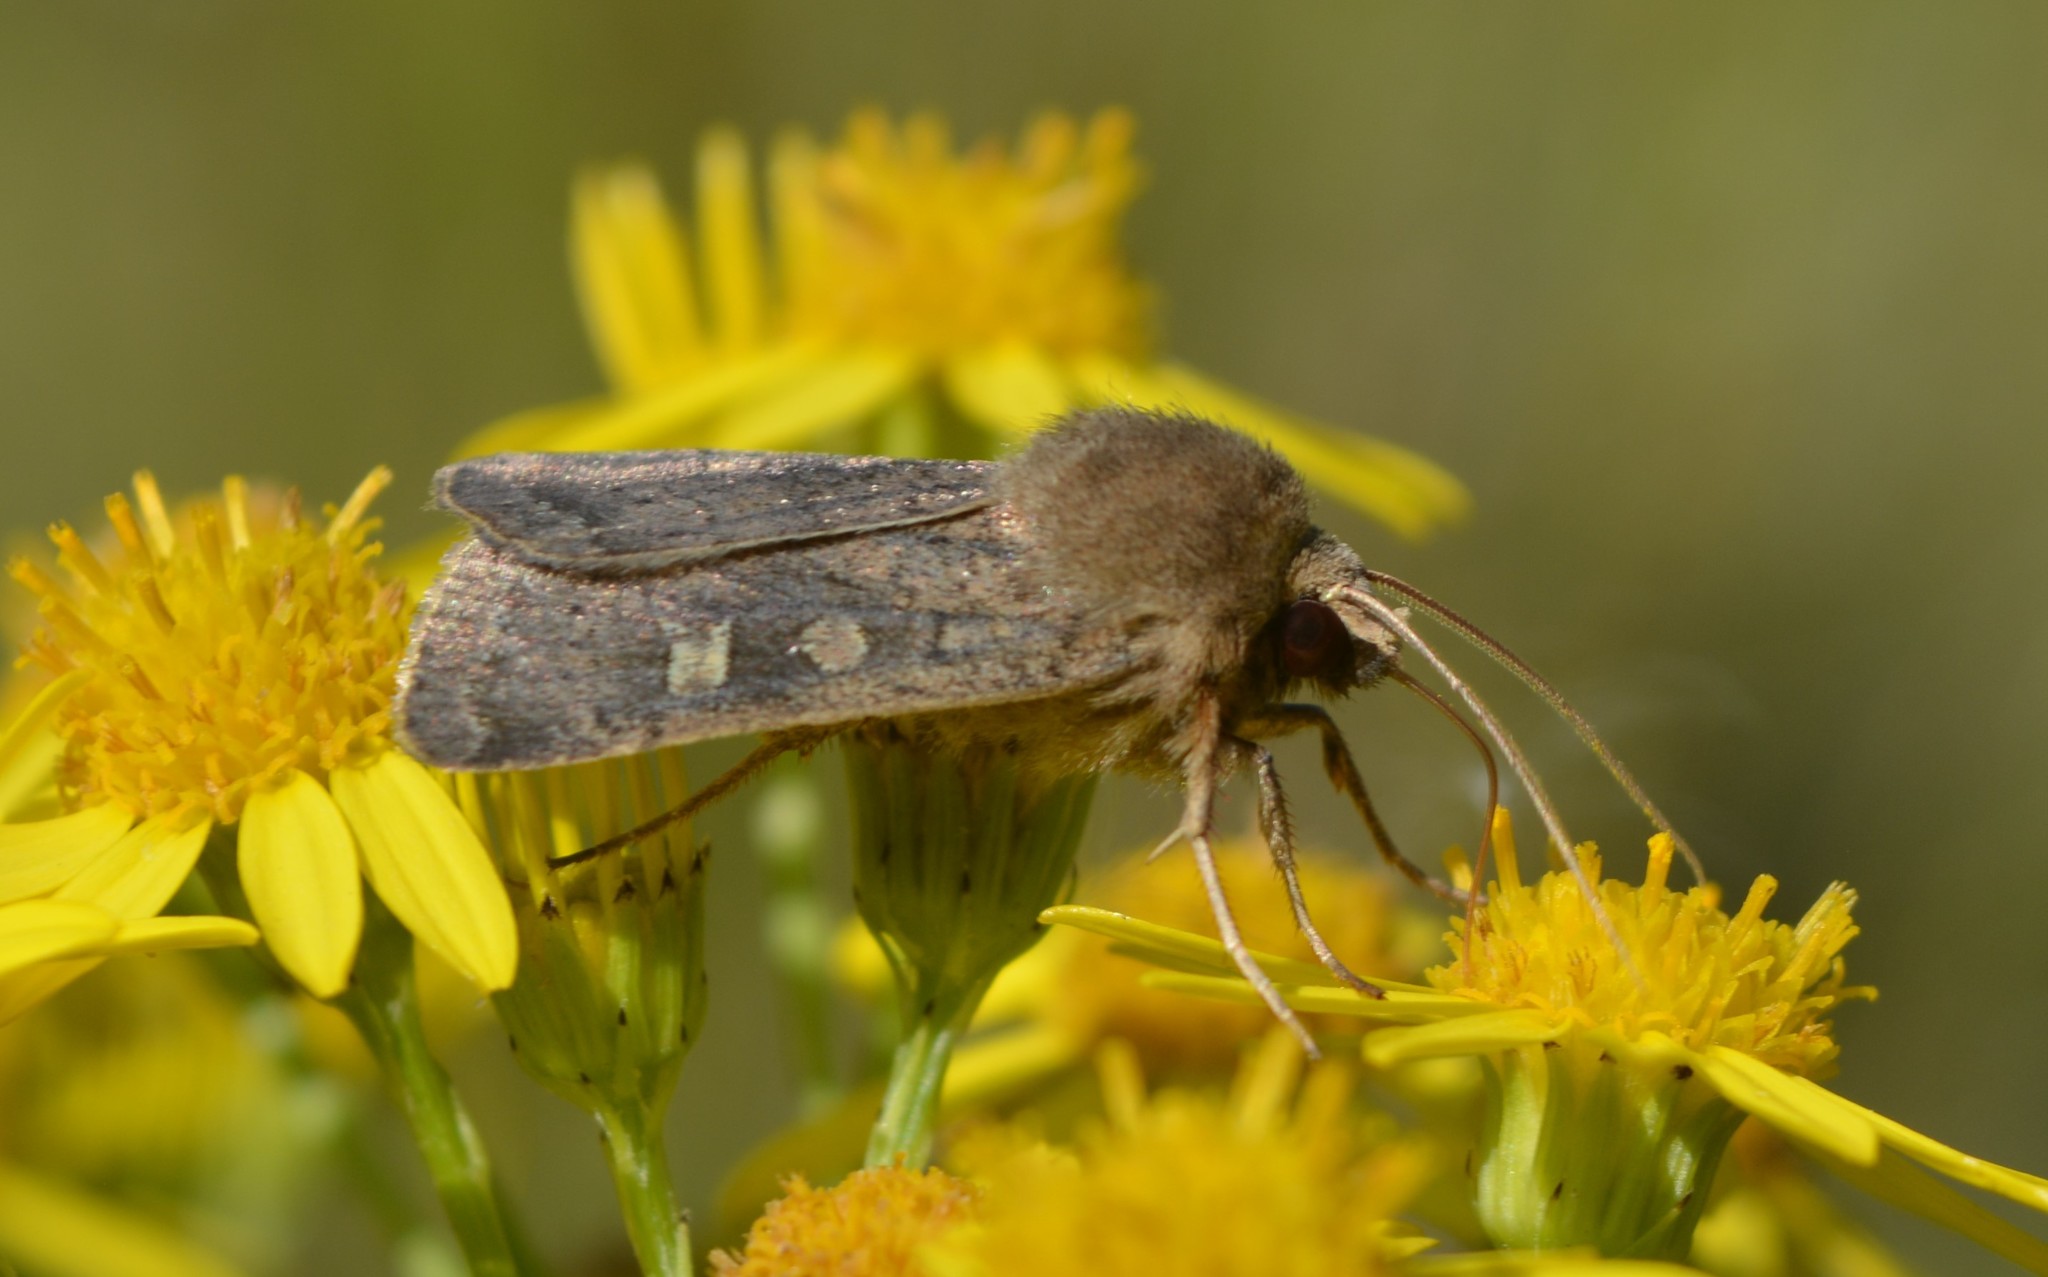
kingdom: Animalia
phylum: Arthropoda
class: Insecta
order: Lepidoptera
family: Noctuidae
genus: Xestia
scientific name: Xestia xanthographa
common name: Square-spot rustic
